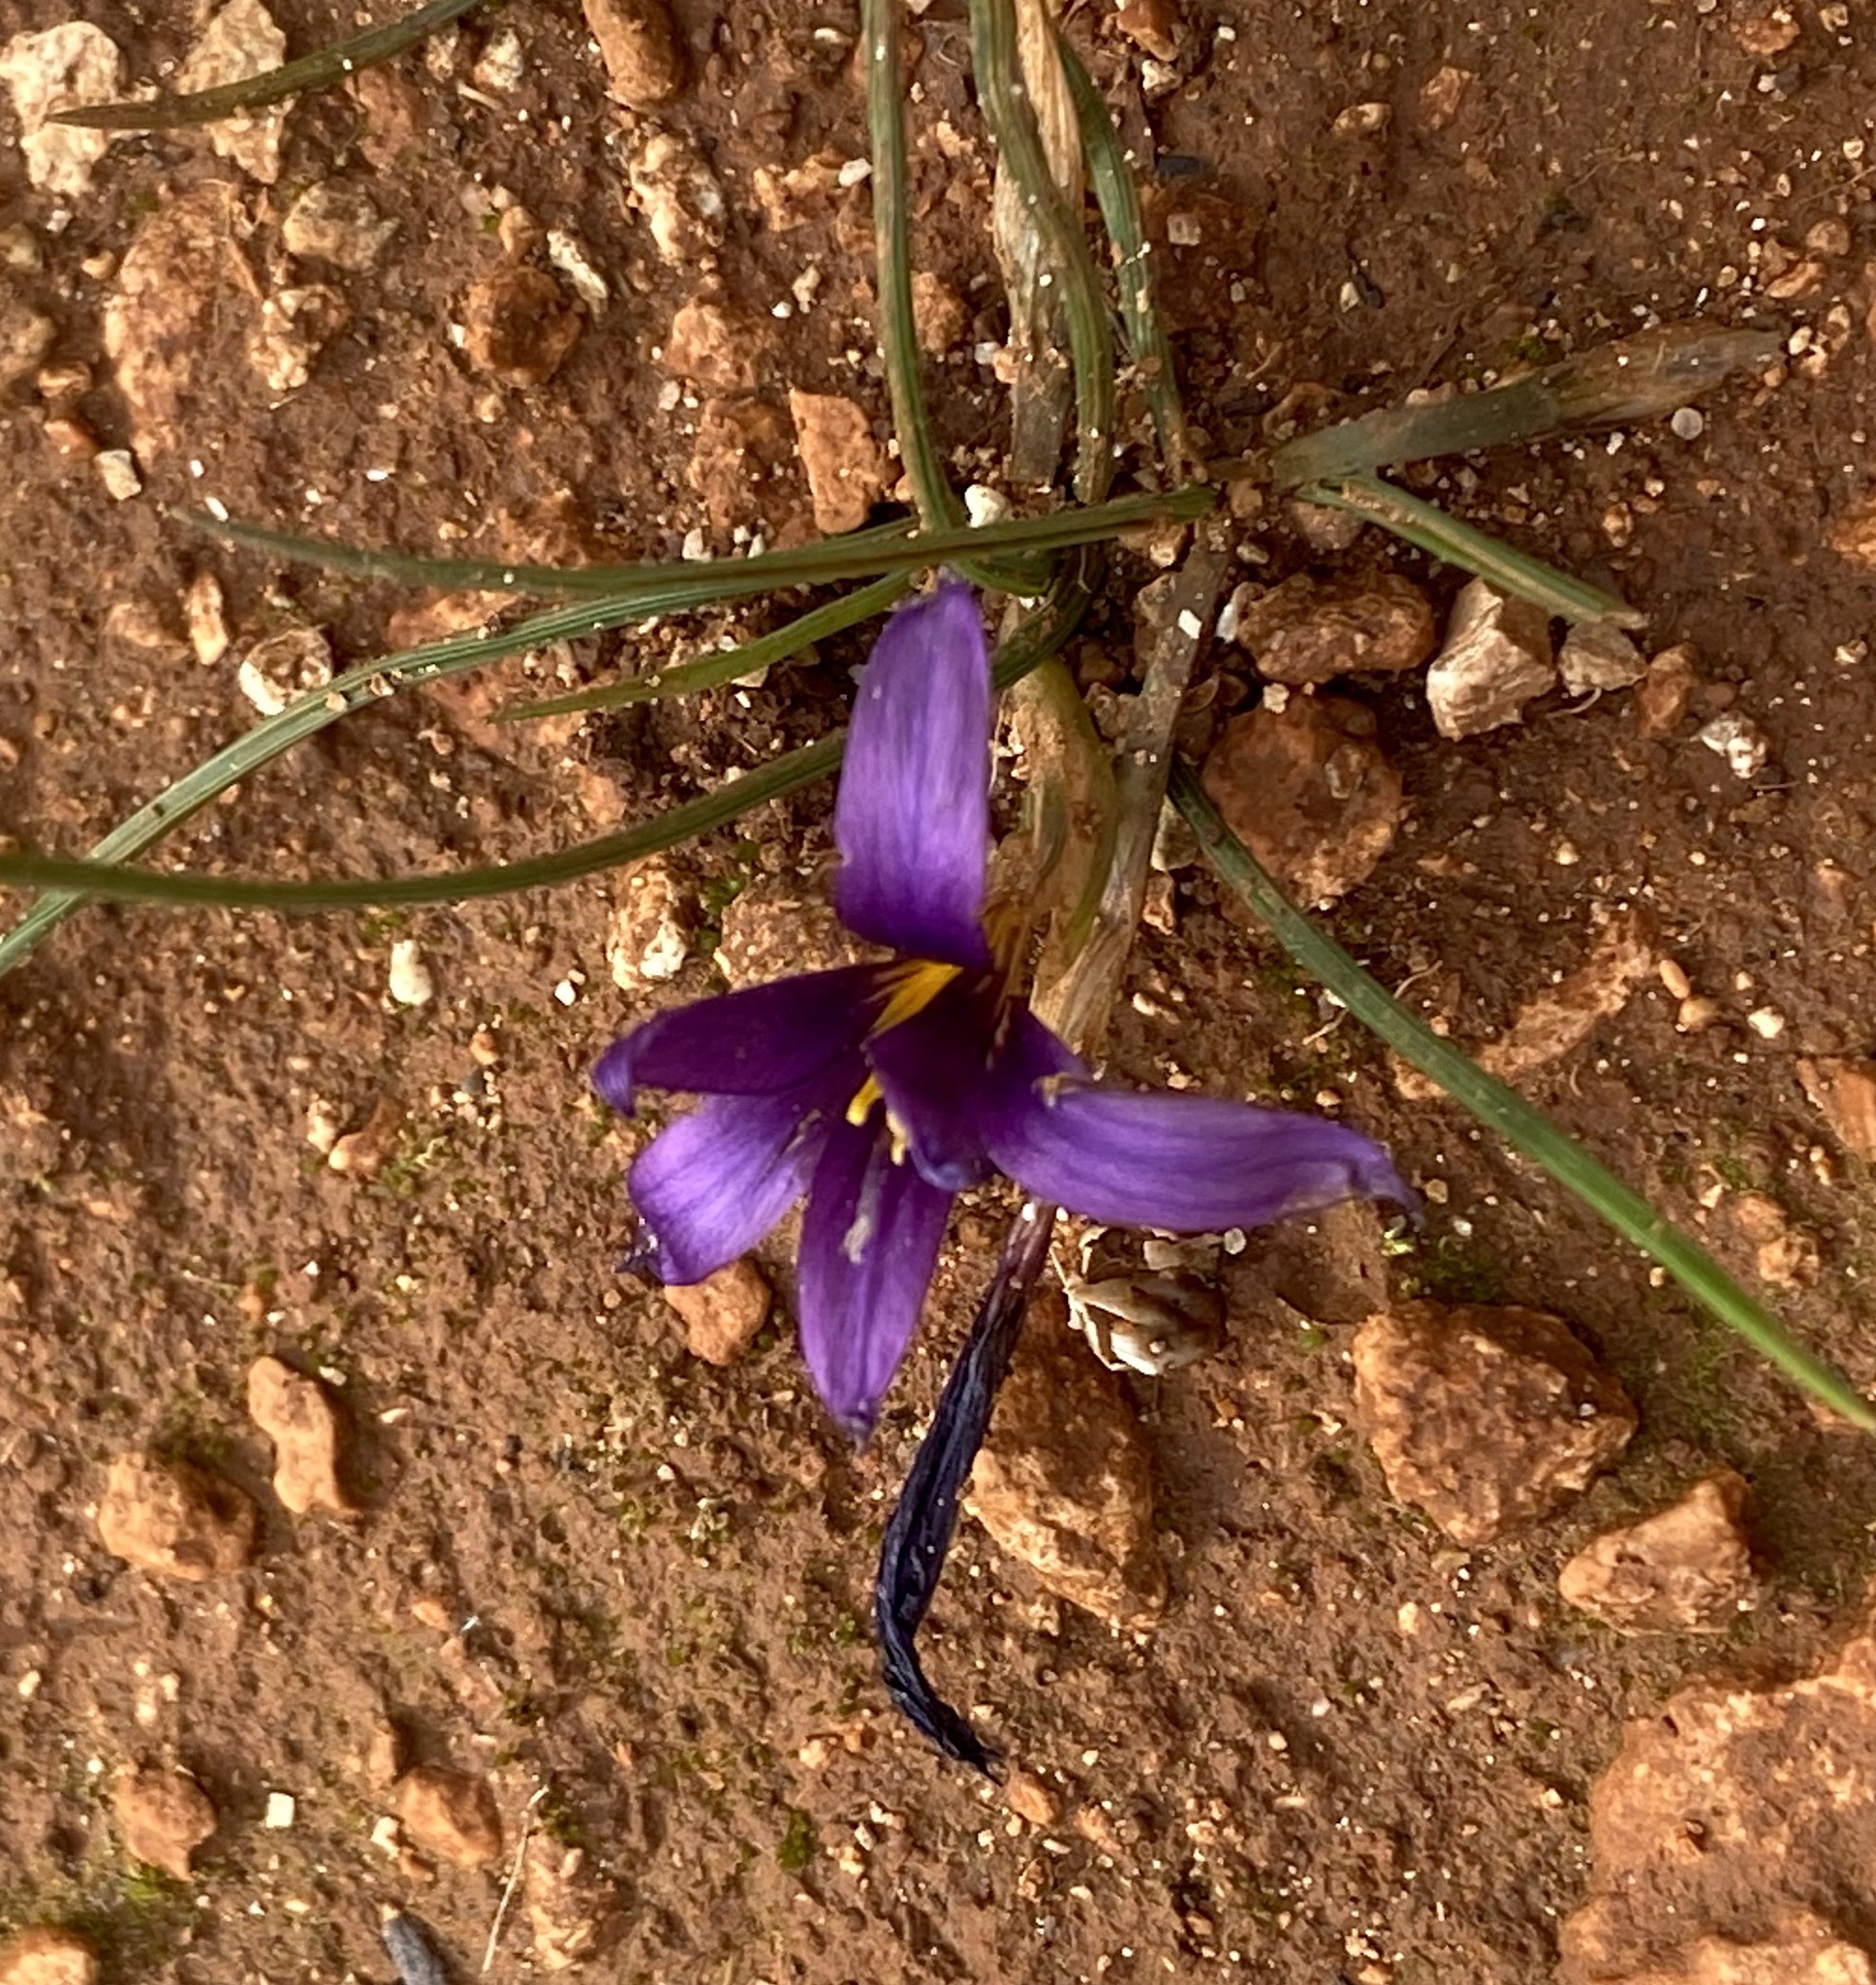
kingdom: Plantae
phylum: Tracheophyta
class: Liliopsida
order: Asparagales
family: Iridaceae
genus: Romulea
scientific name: Romulea tempskyana
